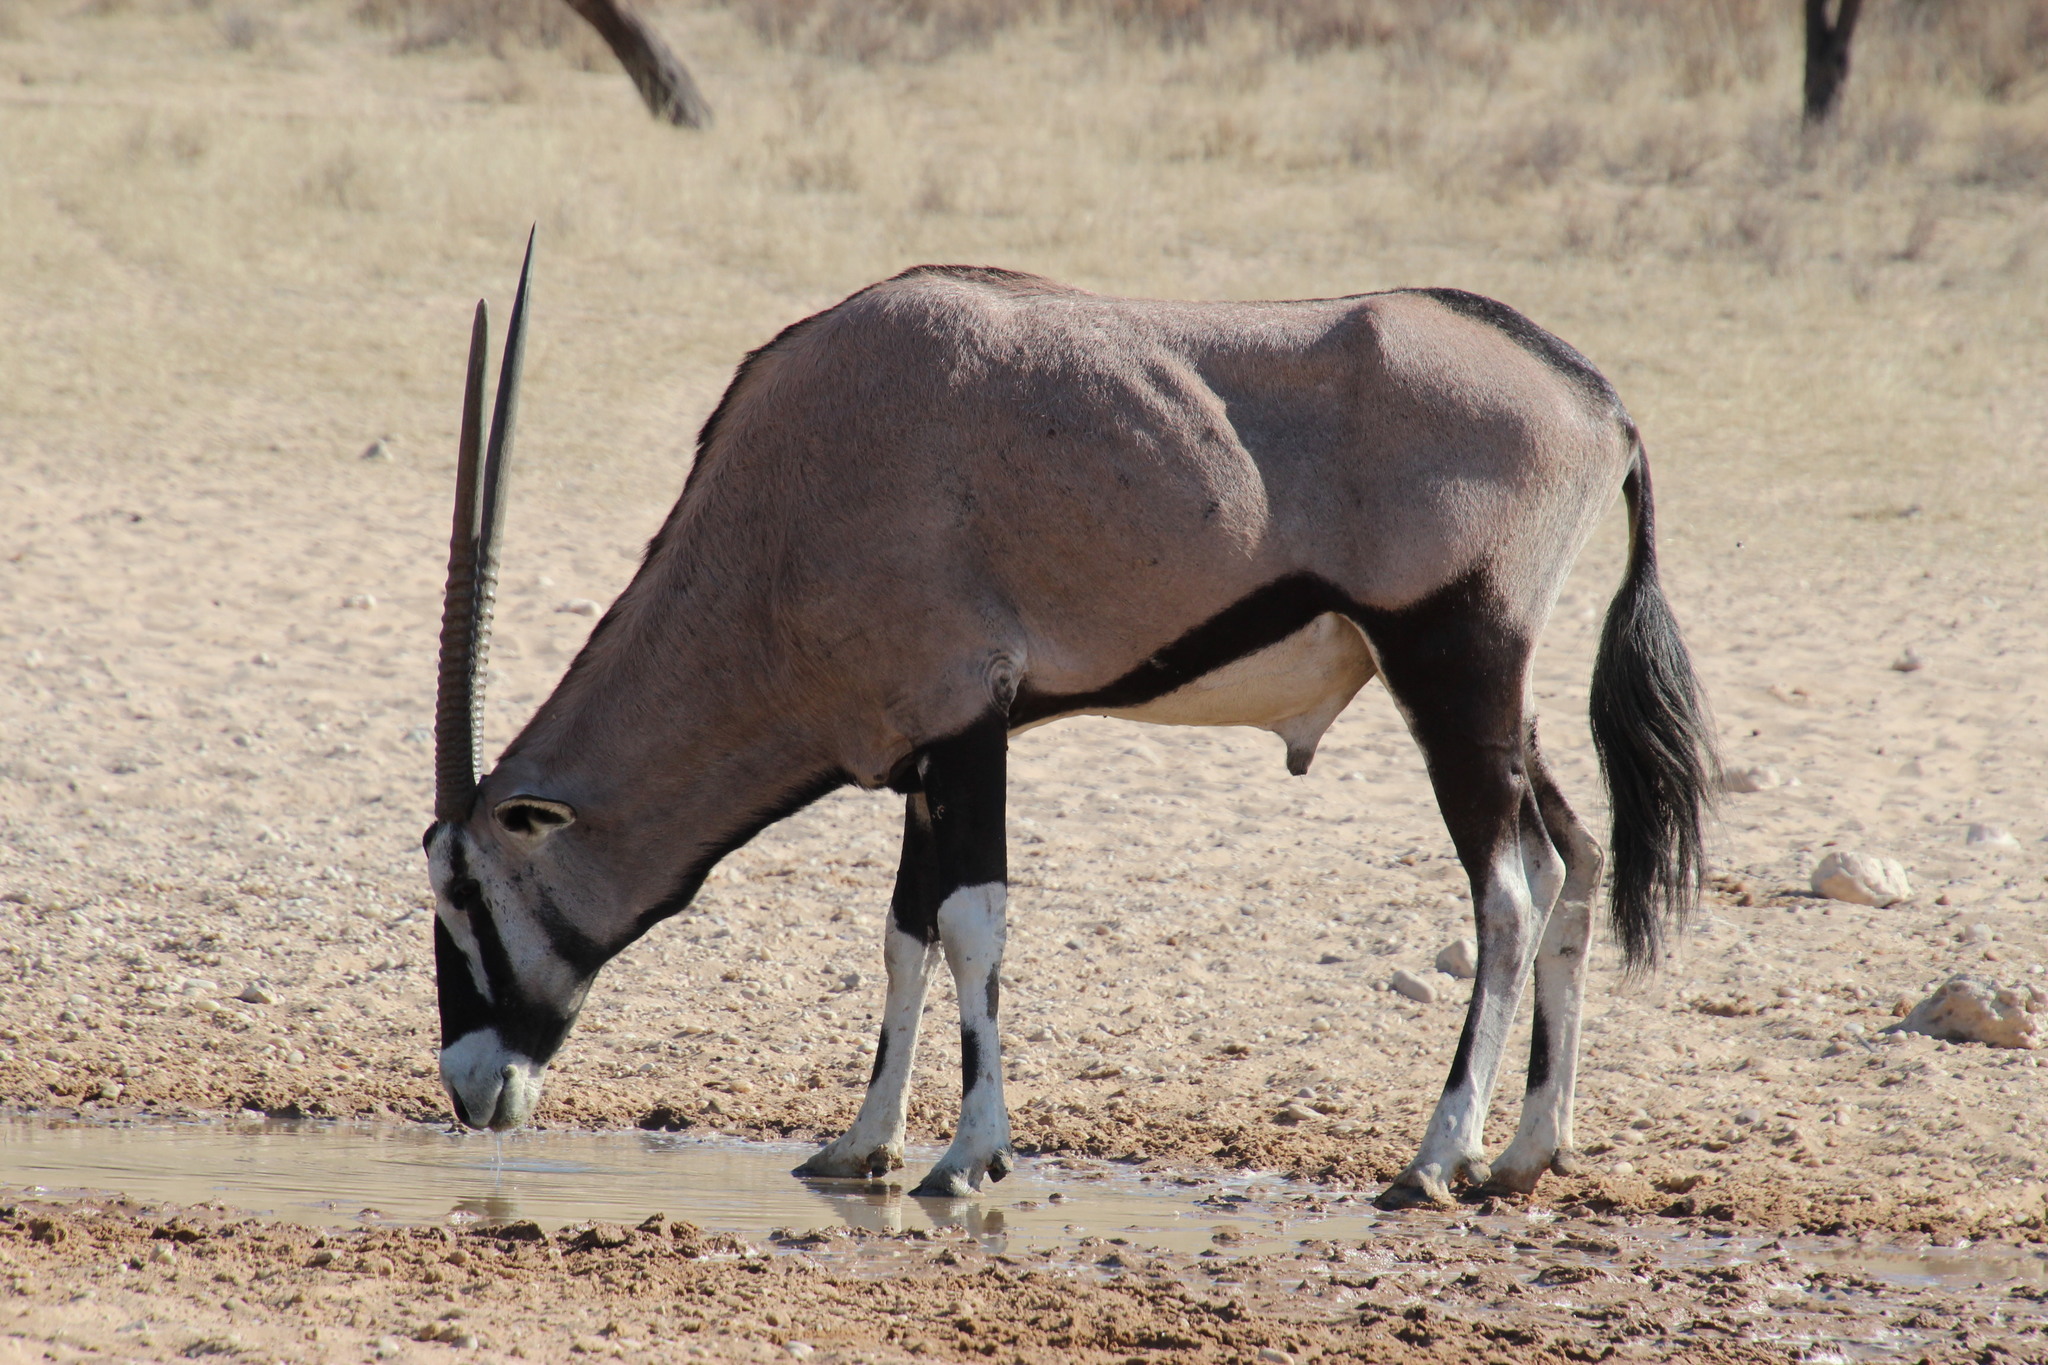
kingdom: Animalia
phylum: Chordata
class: Mammalia
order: Artiodactyla
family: Bovidae
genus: Oryx
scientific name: Oryx gazella
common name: Gemsbok
